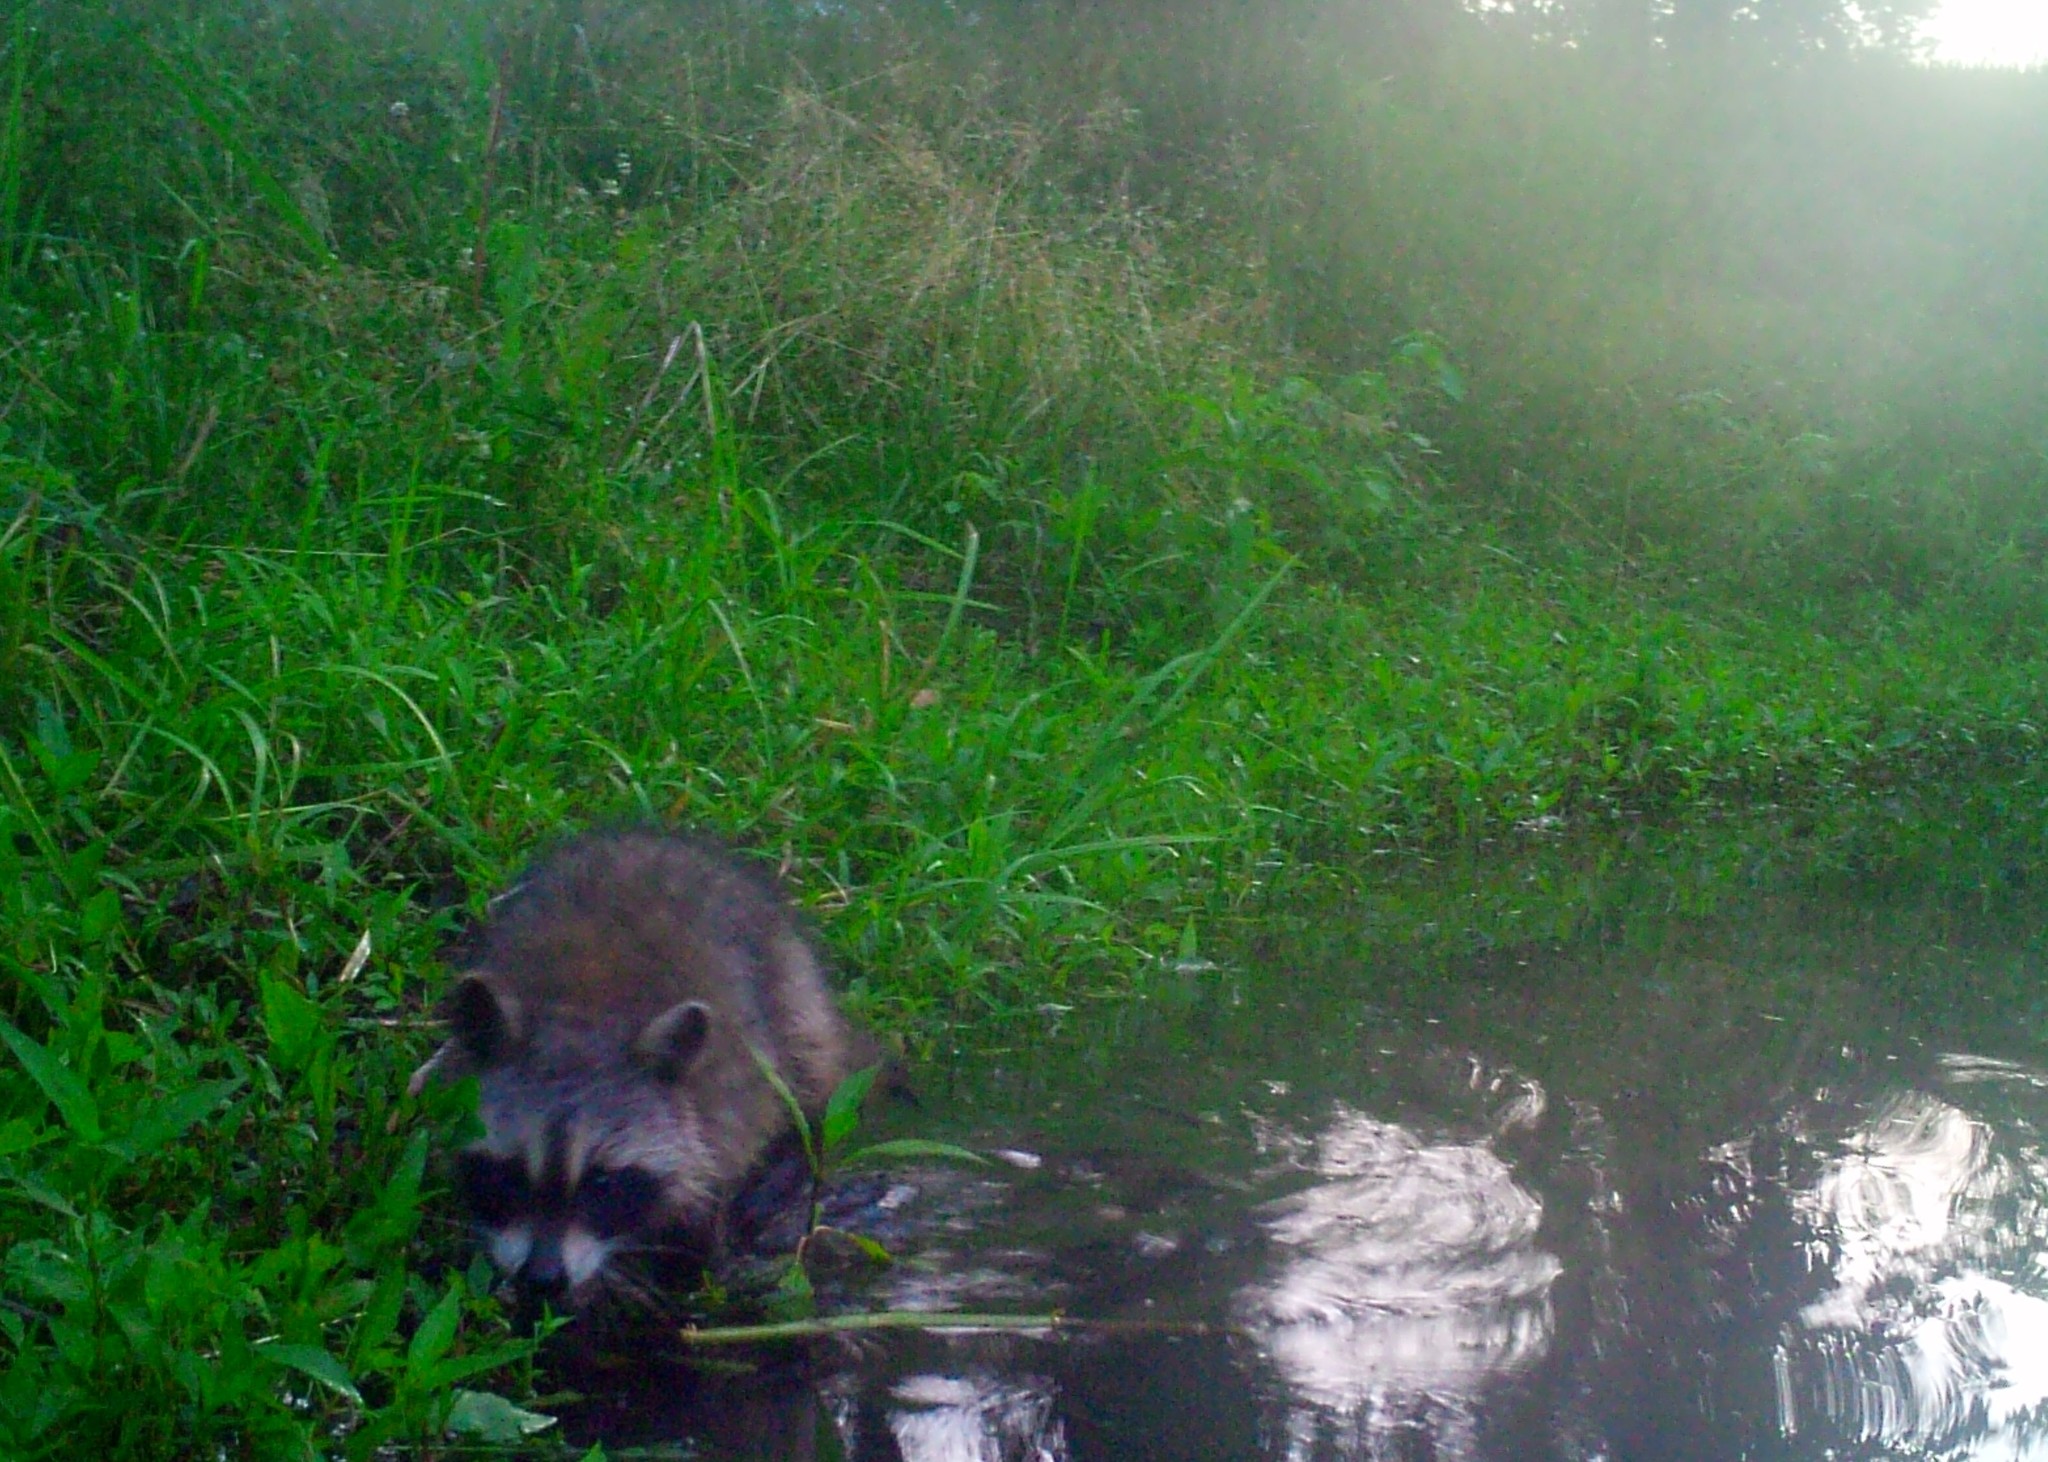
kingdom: Animalia
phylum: Chordata
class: Mammalia
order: Carnivora
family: Procyonidae
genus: Procyon
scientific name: Procyon lotor
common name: Raccoon
